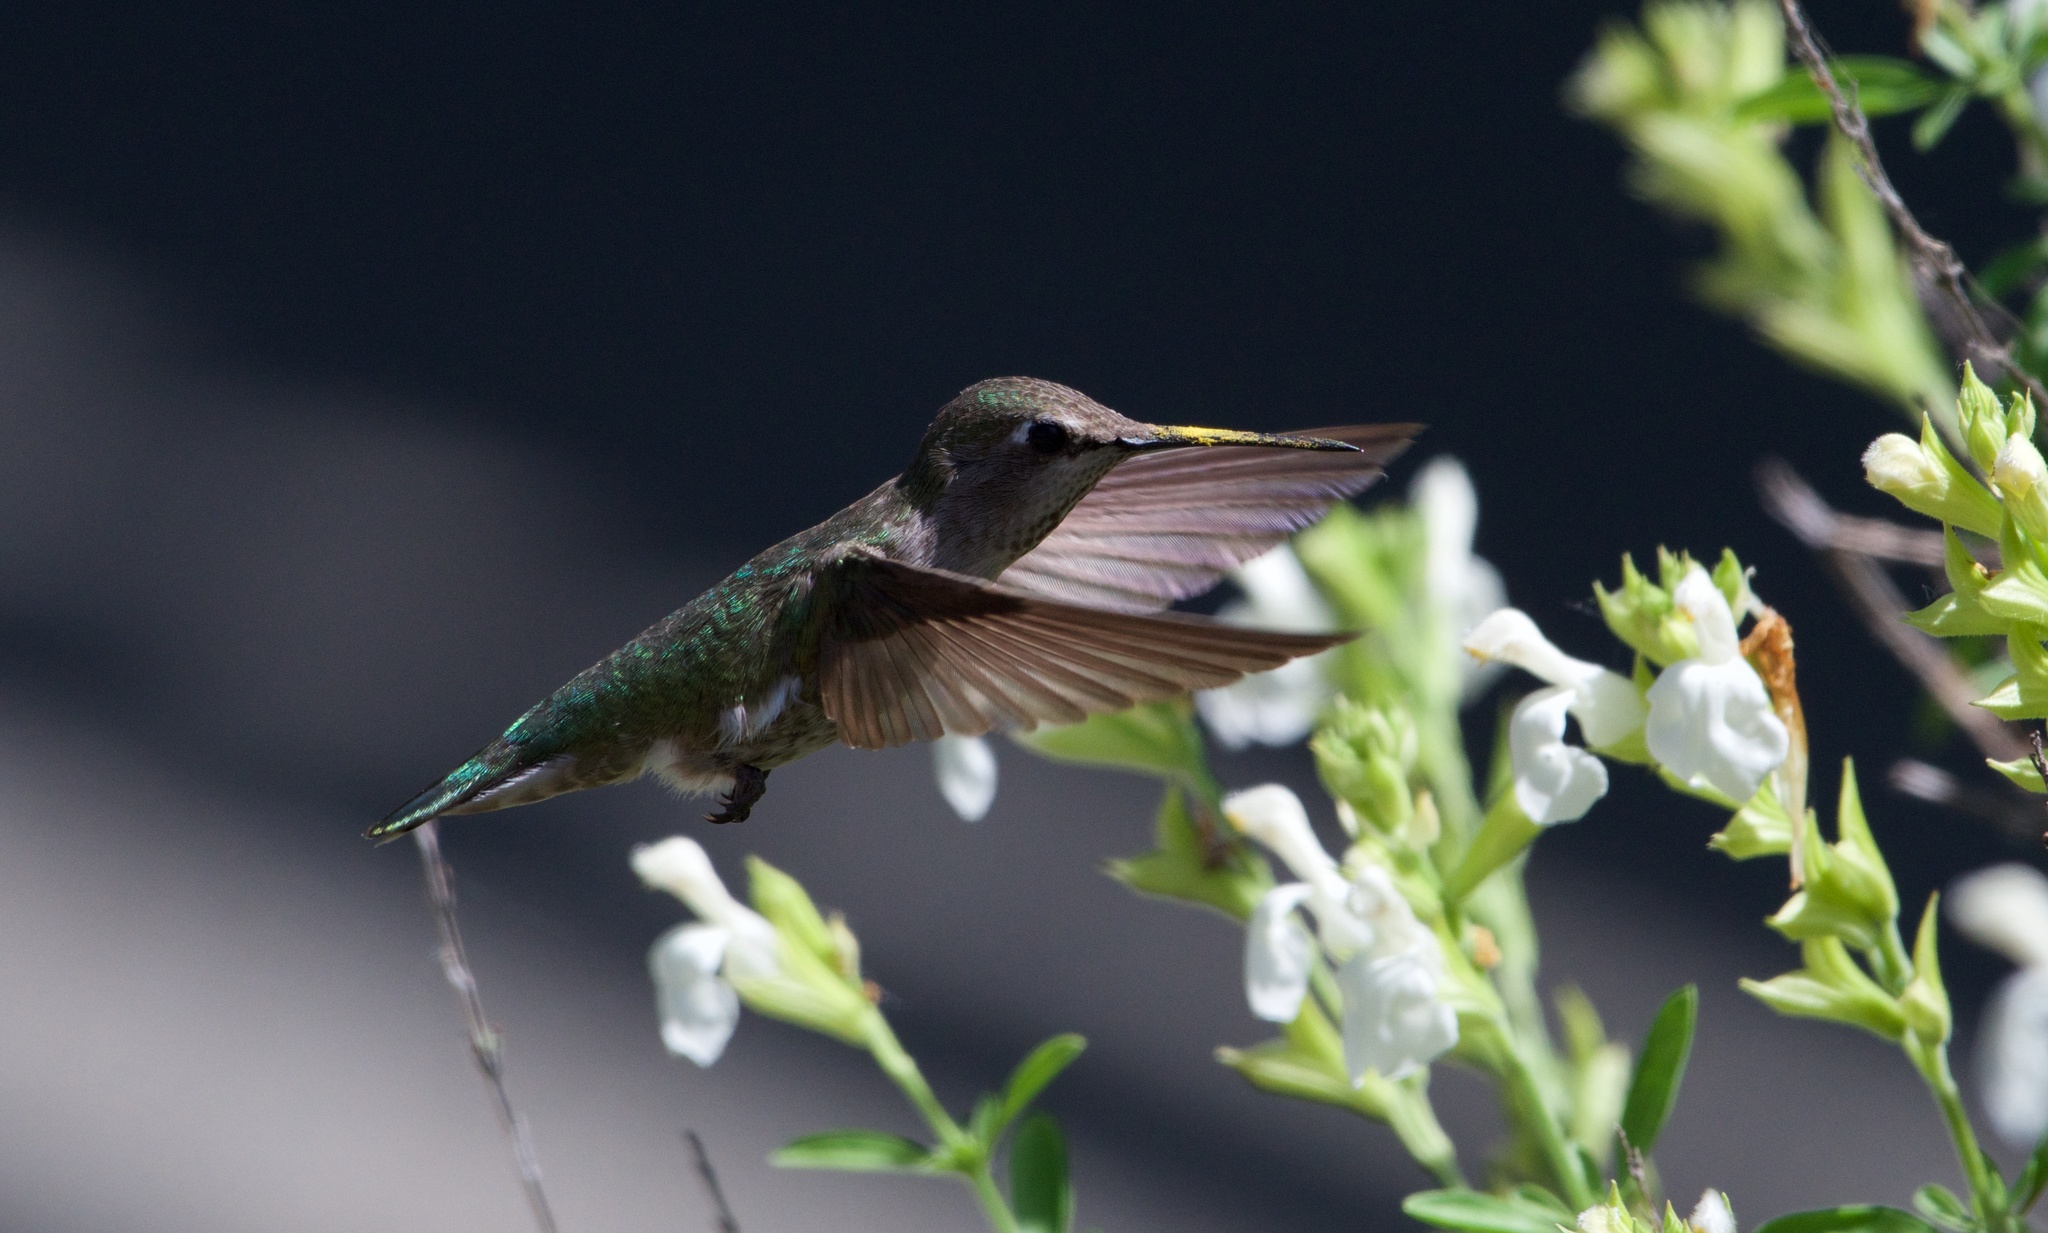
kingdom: Animalia
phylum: Chordata
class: Aves
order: Apodiformes
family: Trochilidae
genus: Calypte
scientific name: Calypte anna
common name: Anna's hummingbird
